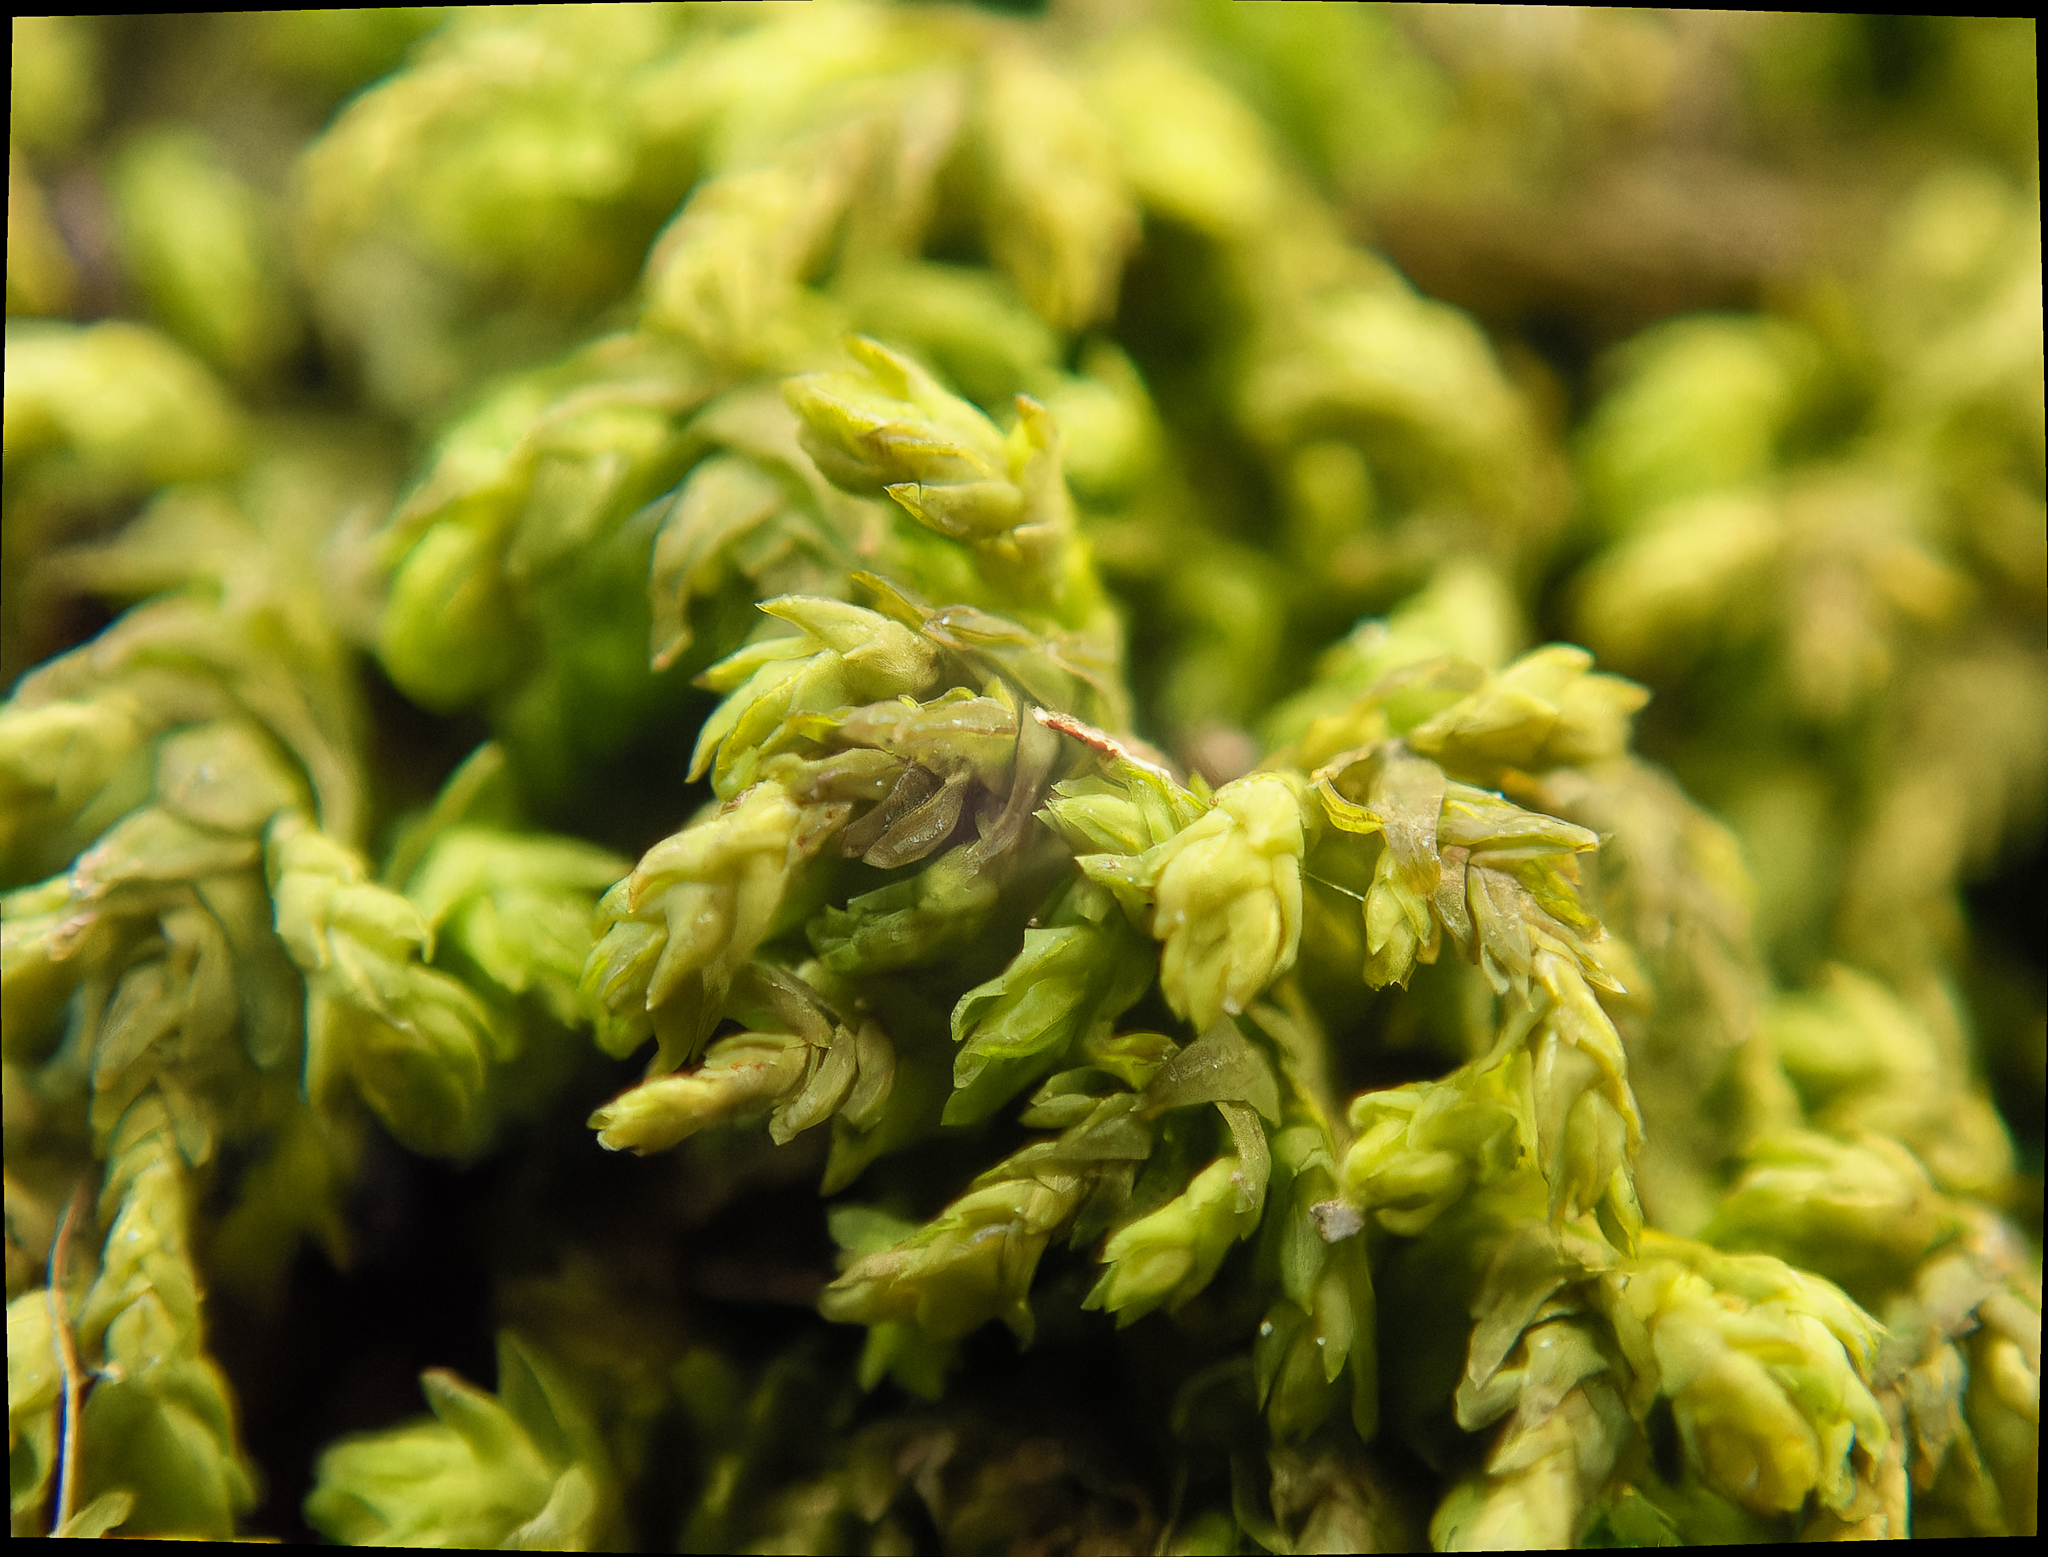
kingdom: Plantae
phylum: Bryophyta
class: Bryopsida
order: Hypnales
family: Neckeraceae
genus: Pseudanomodon
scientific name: Pseudanomodon attenuatus
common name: Tree-skirt moss
